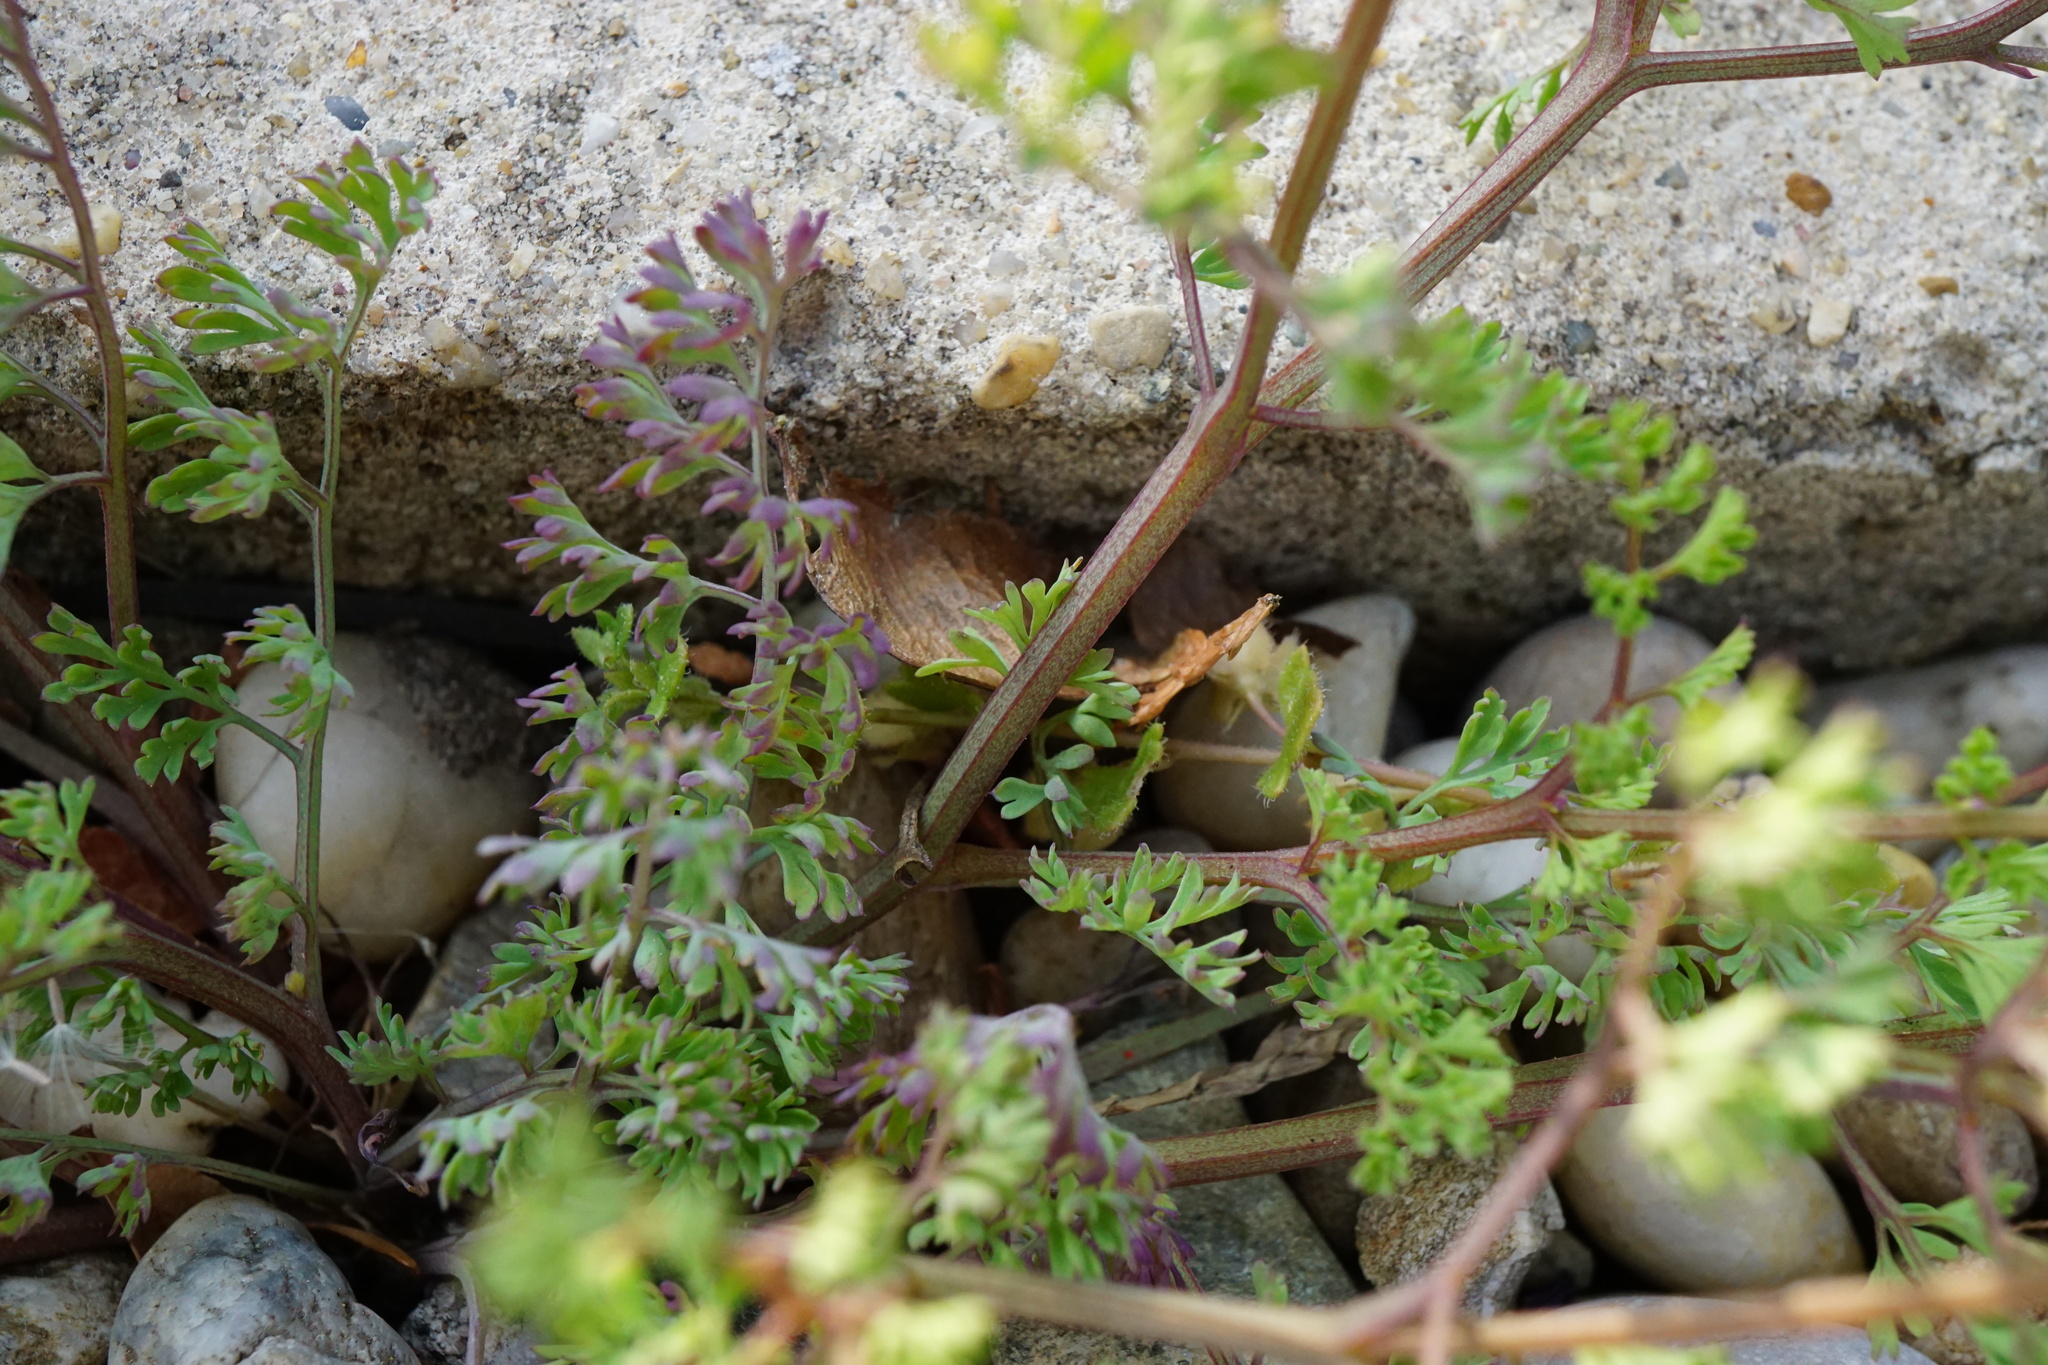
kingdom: Plantae
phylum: Tracheophyta
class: Magnoliopsida
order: Ranunculales
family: Papaveraceae
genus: Fumaria
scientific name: Fumaria officinalis
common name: Common fumitory
